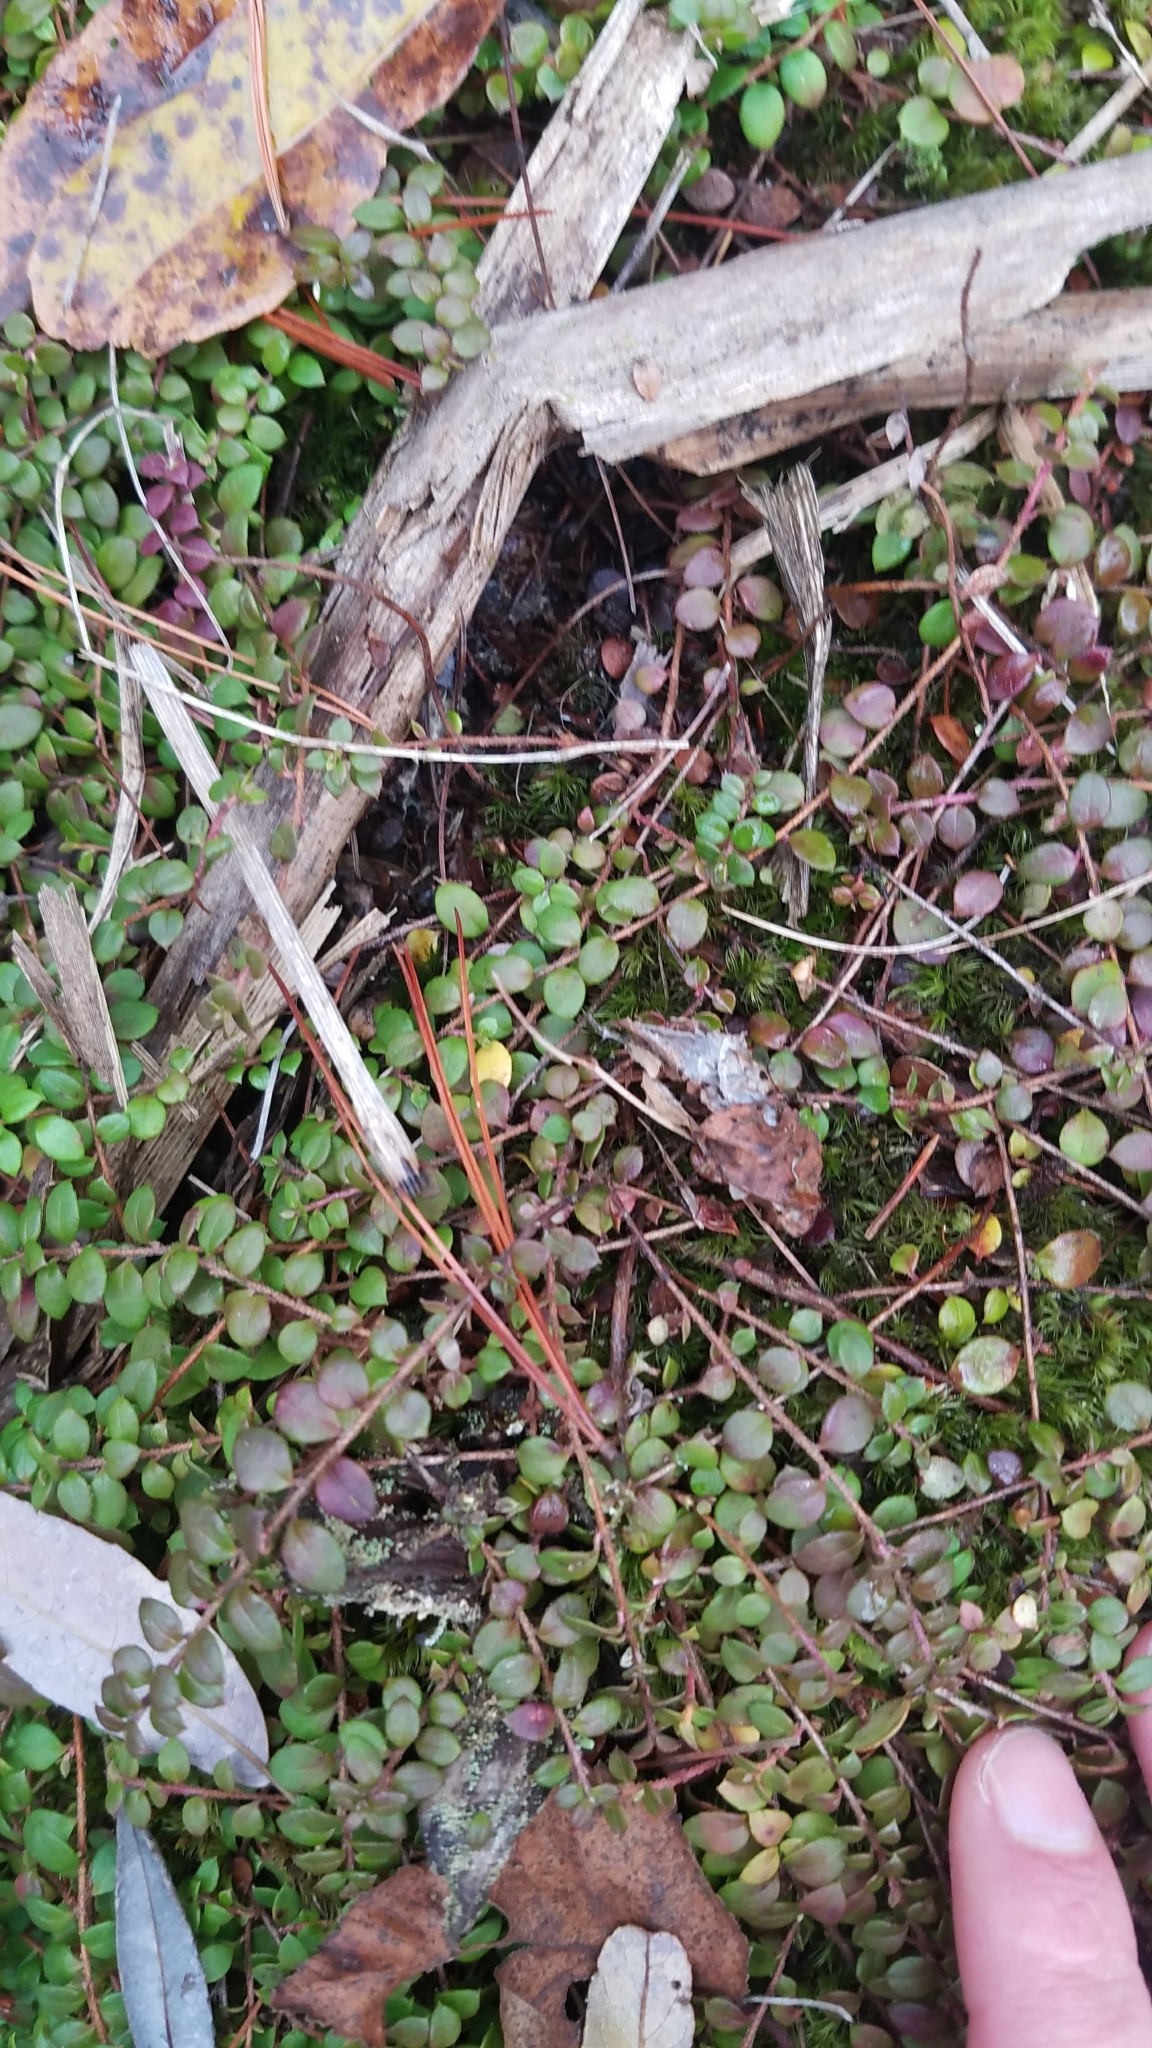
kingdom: Plantae
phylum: Tracheophyta
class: Magnoliopsida
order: Ericales
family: Ericaceae
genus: Gaultheria
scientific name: Gaultheria hispidula
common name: Cancer wintergreen
